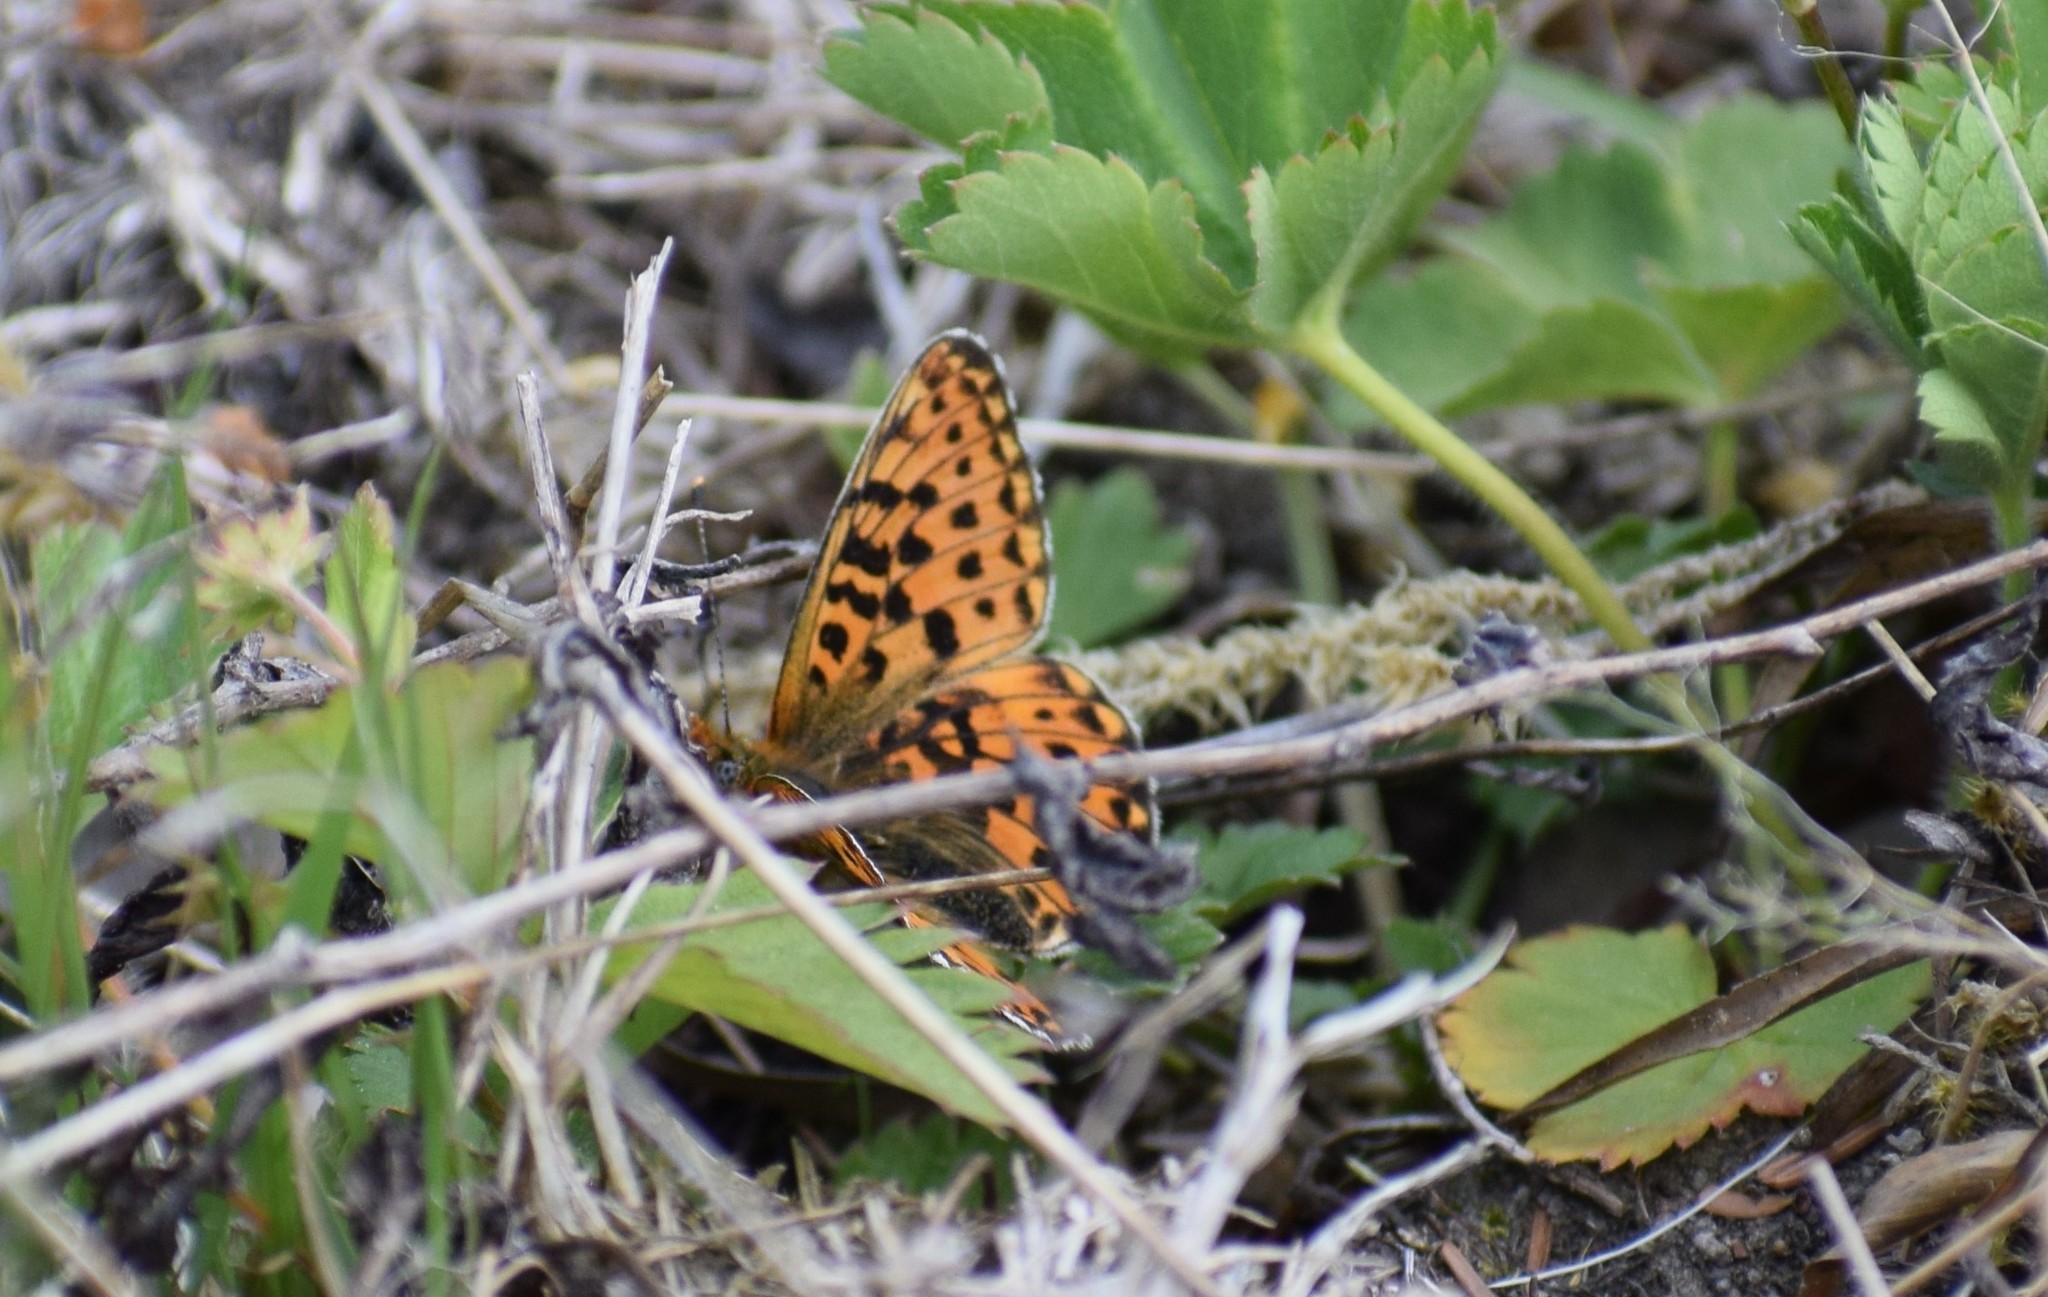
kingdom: Animalia
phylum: Arthropoda
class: Insecta
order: Lepidoptera
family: Nymphalidae
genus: Clossiana
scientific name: Clossiana euphrosyne
